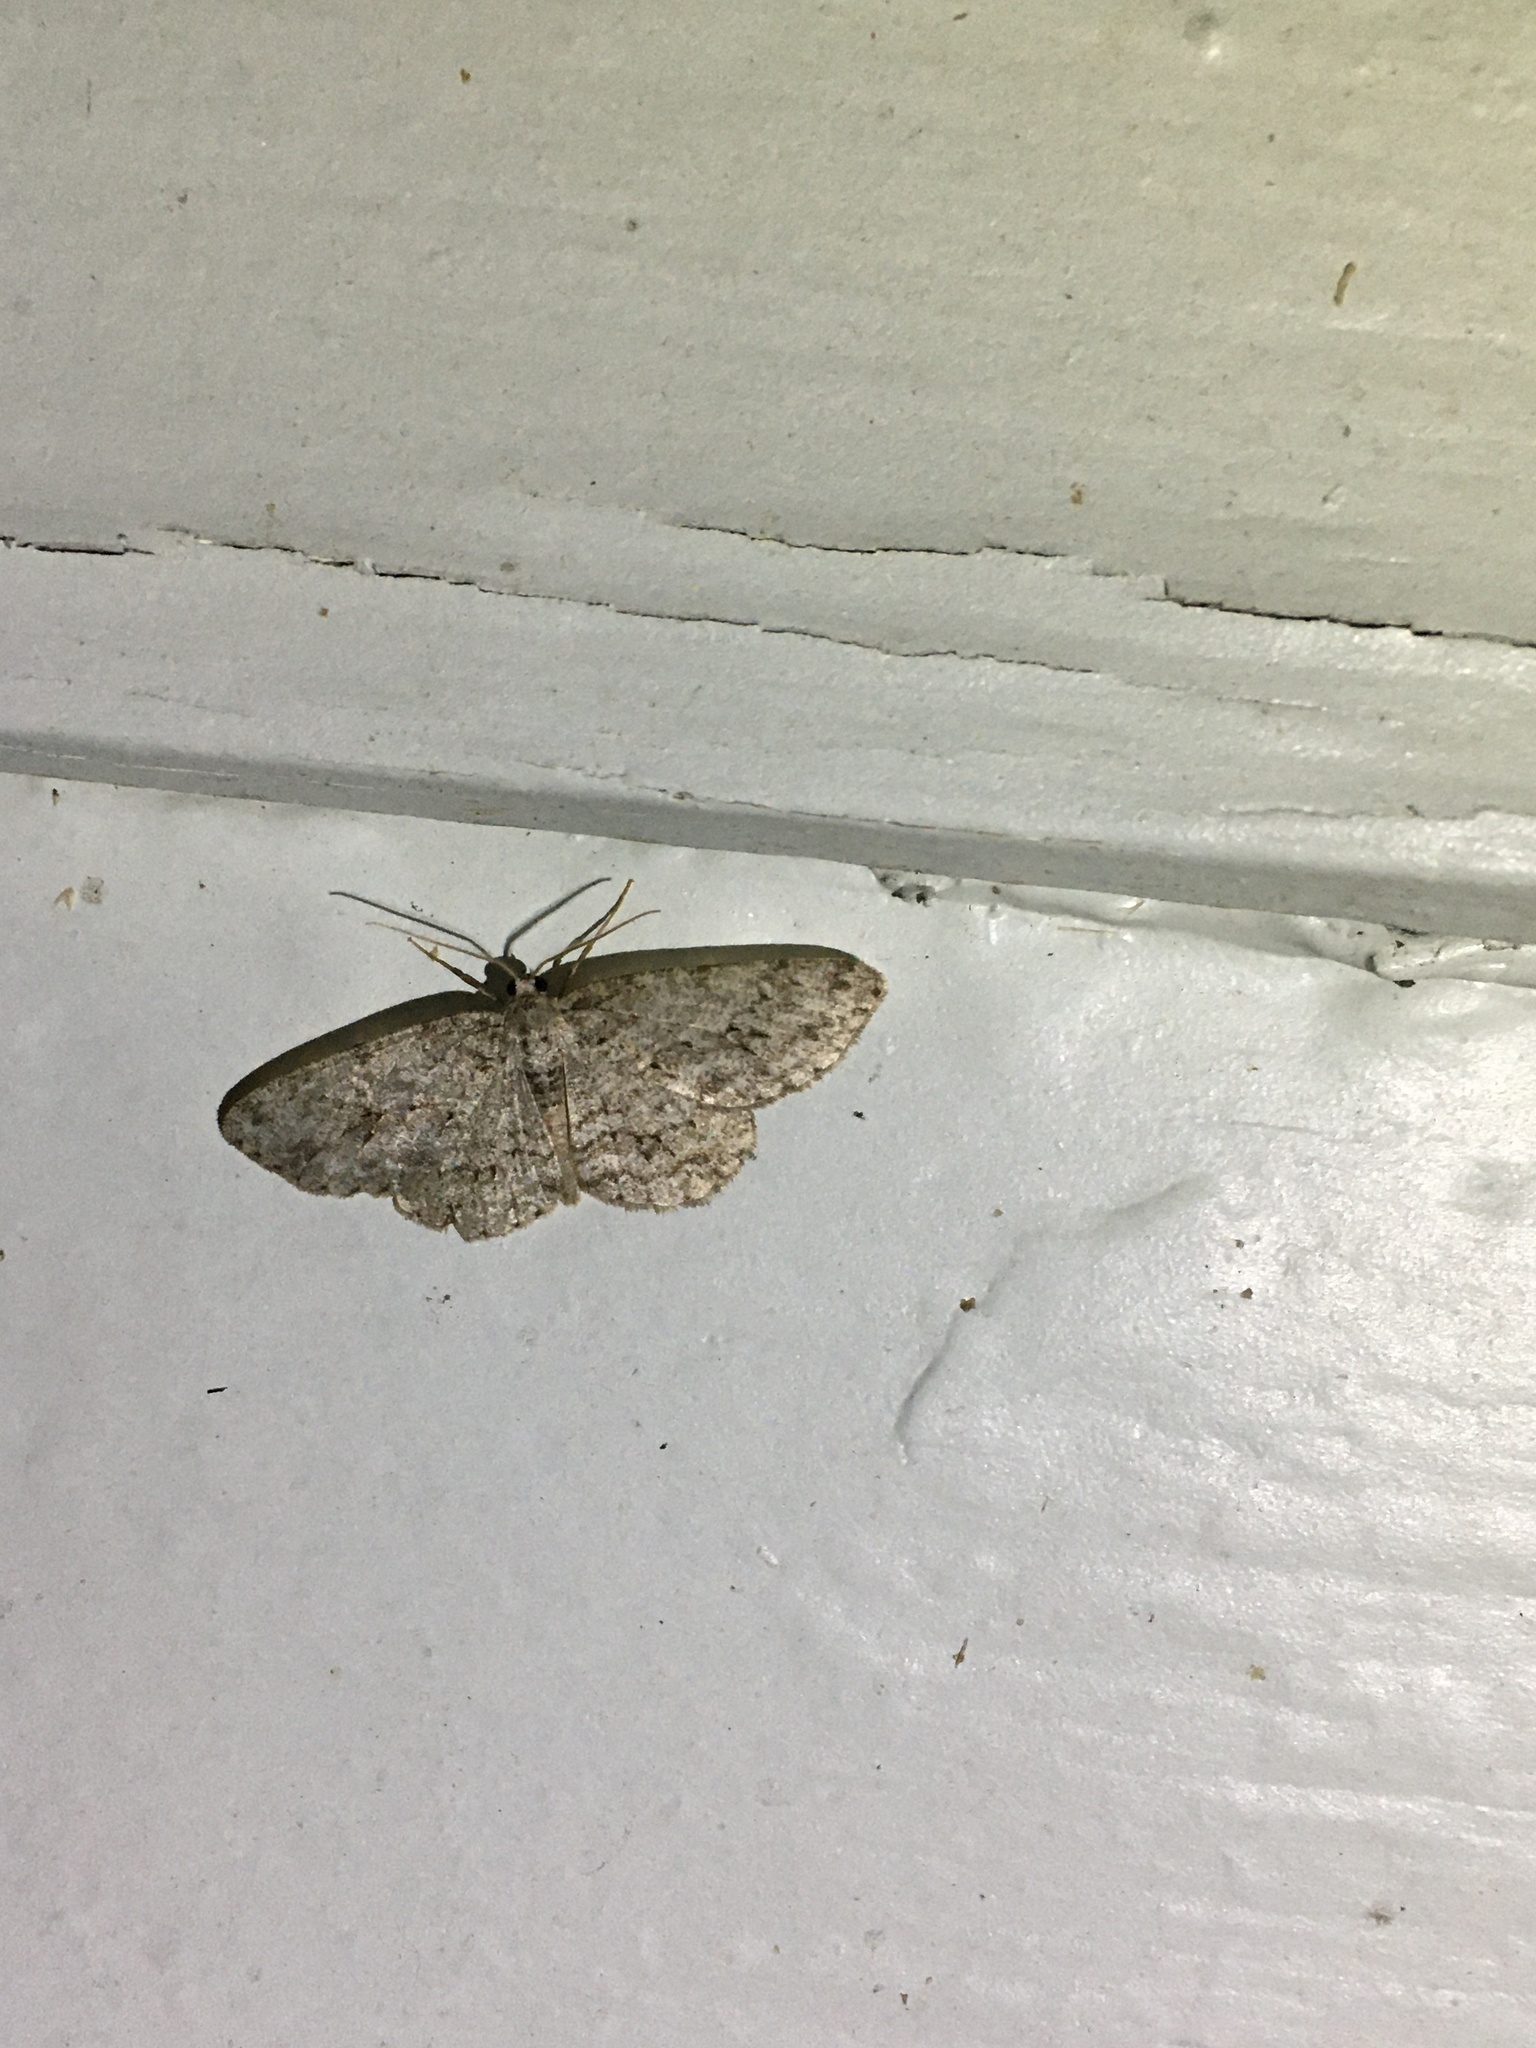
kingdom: Animalia
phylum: Arthropoda
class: Insecta
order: Lepidoptera
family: Geometridae
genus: Ectropis
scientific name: Ectropis crepuscularia
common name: Engrailed
